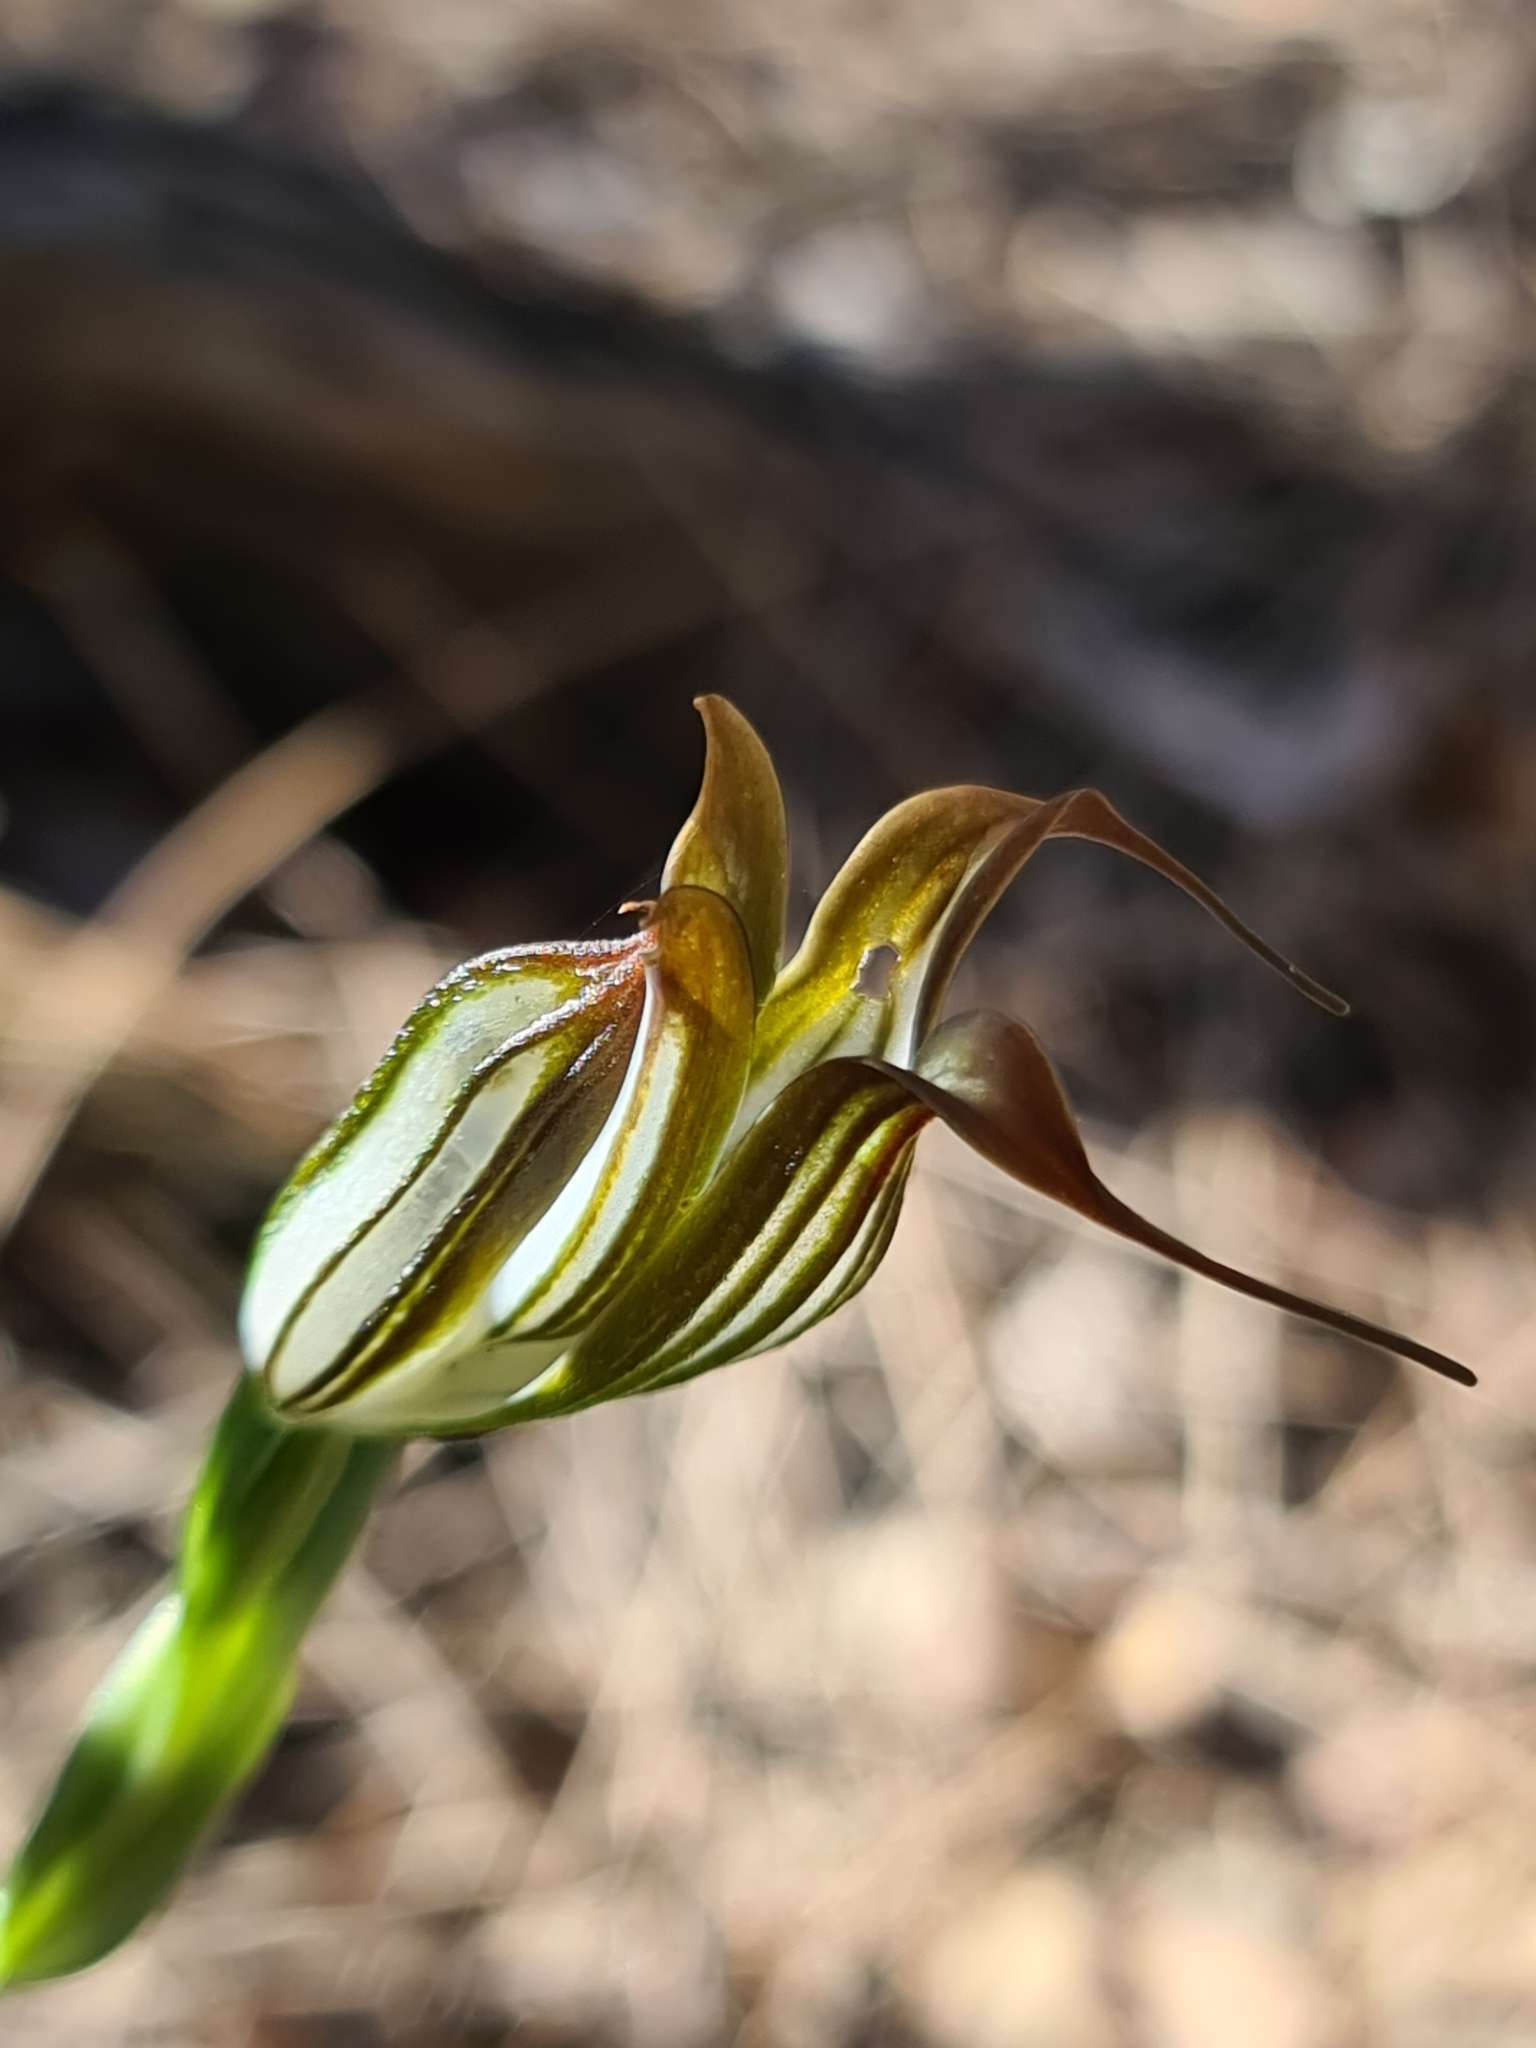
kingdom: Plantae
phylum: Tracheophyta
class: Liliopsida
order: Asparagales
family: Orchidaceae
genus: Pterostylis
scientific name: Pterostylis recurva
